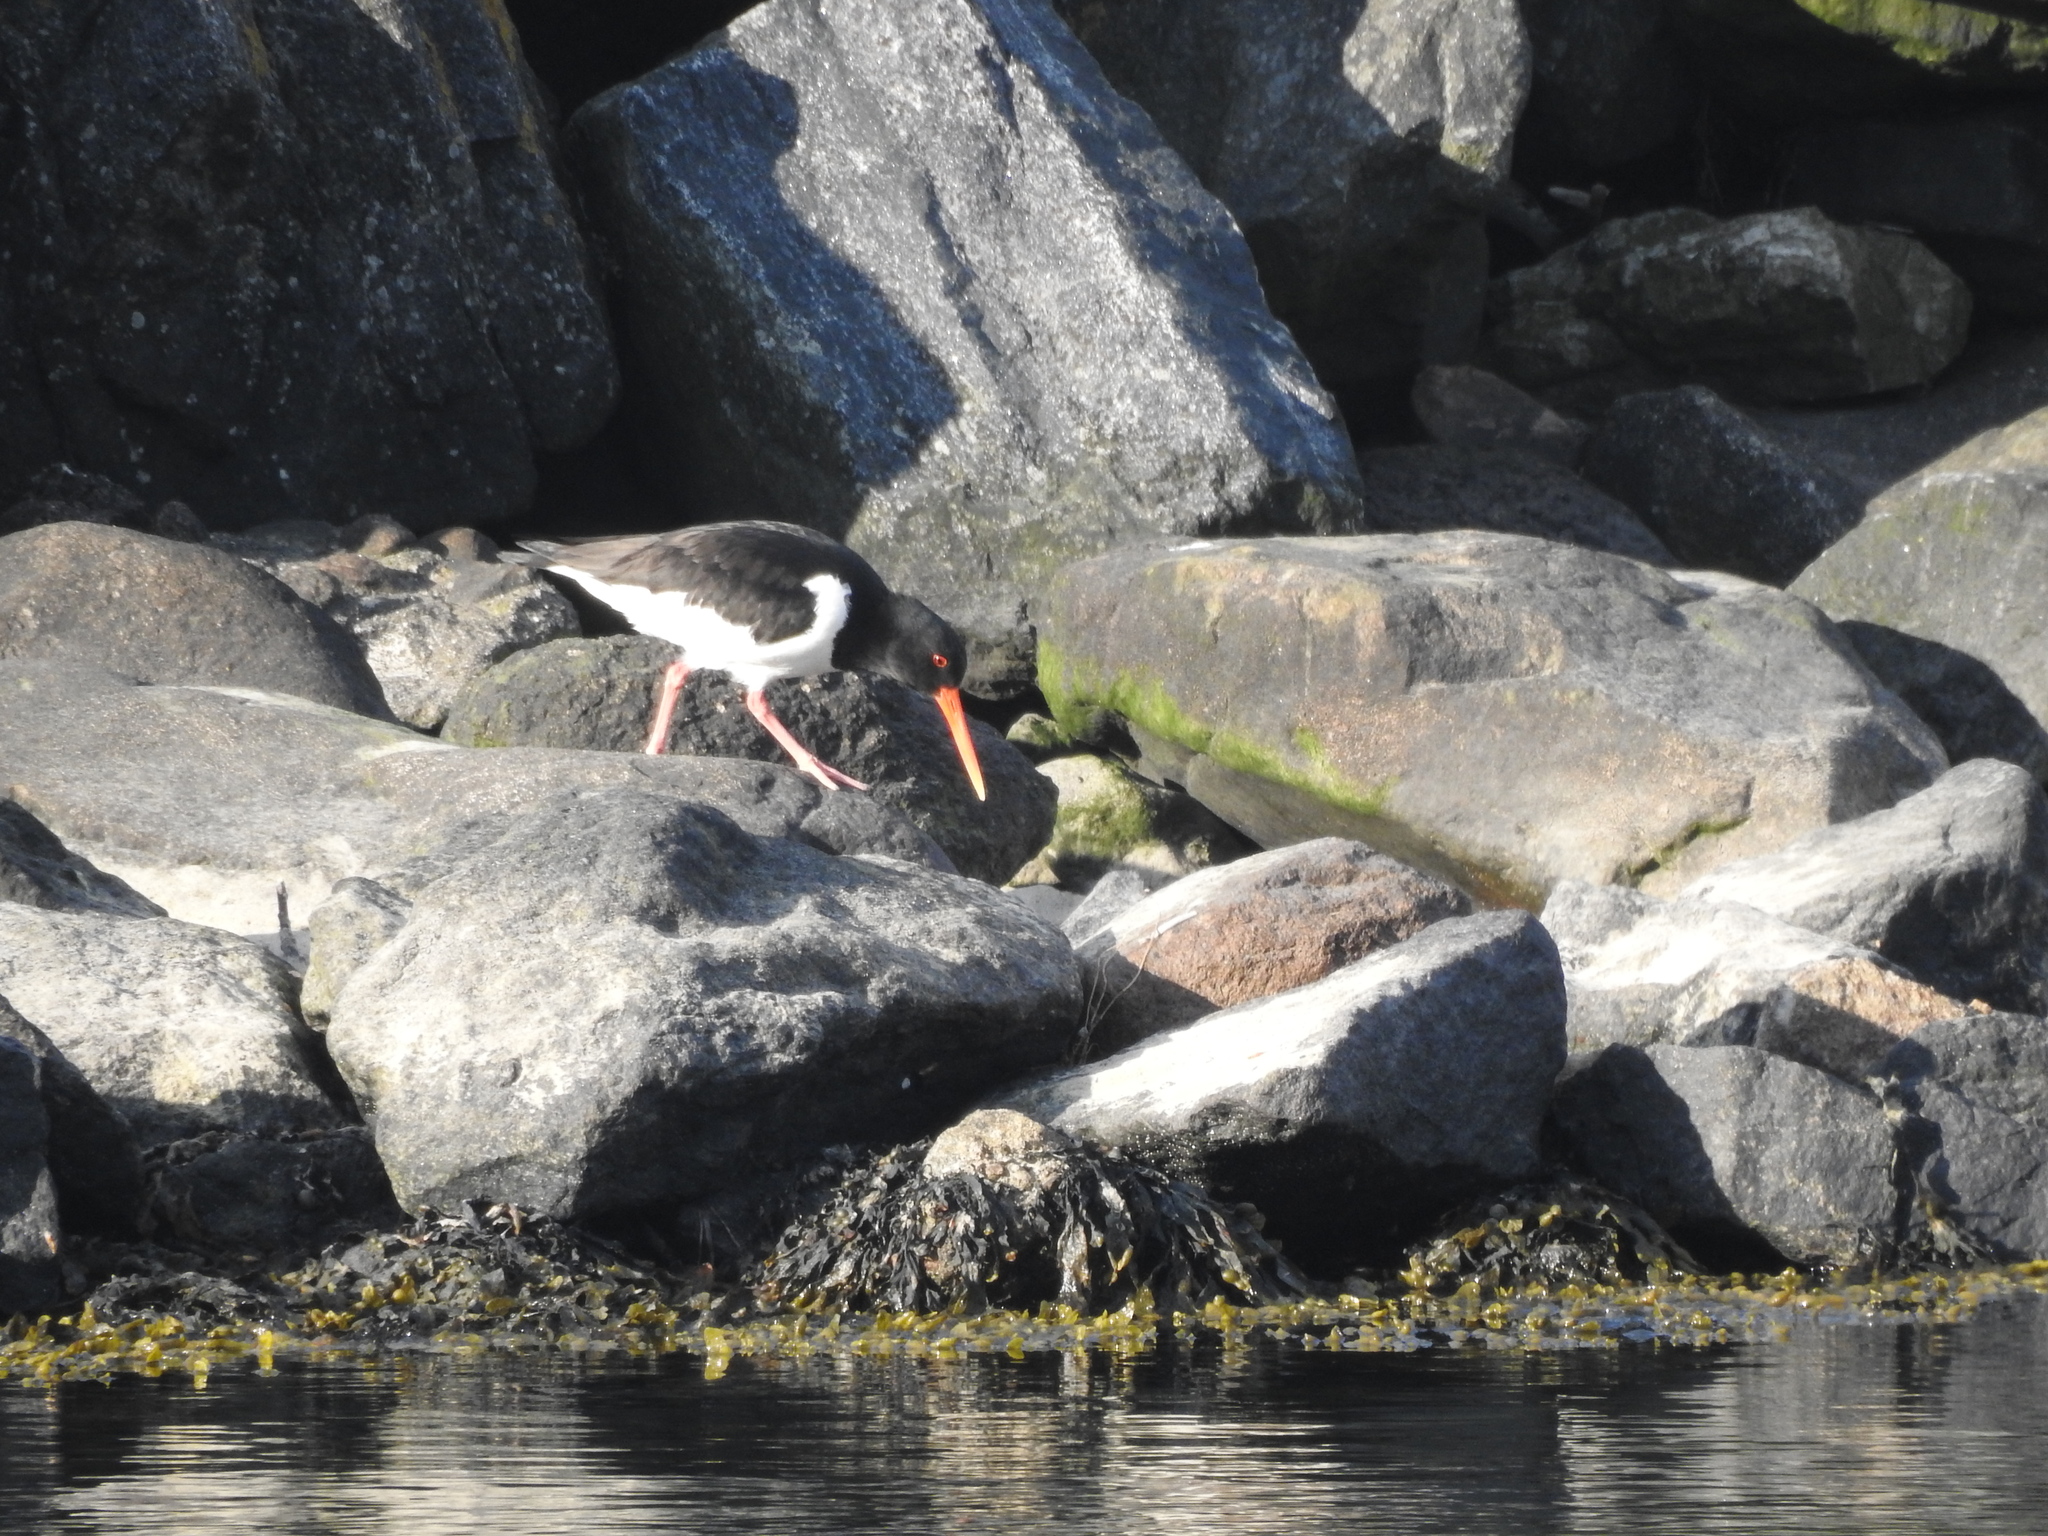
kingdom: Animalia
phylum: Chordata
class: Aves
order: Charadriiformes
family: Haematopodidae
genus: Haematopus
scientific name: Haematopus ostralegus
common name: Eurasian oystercatcher
